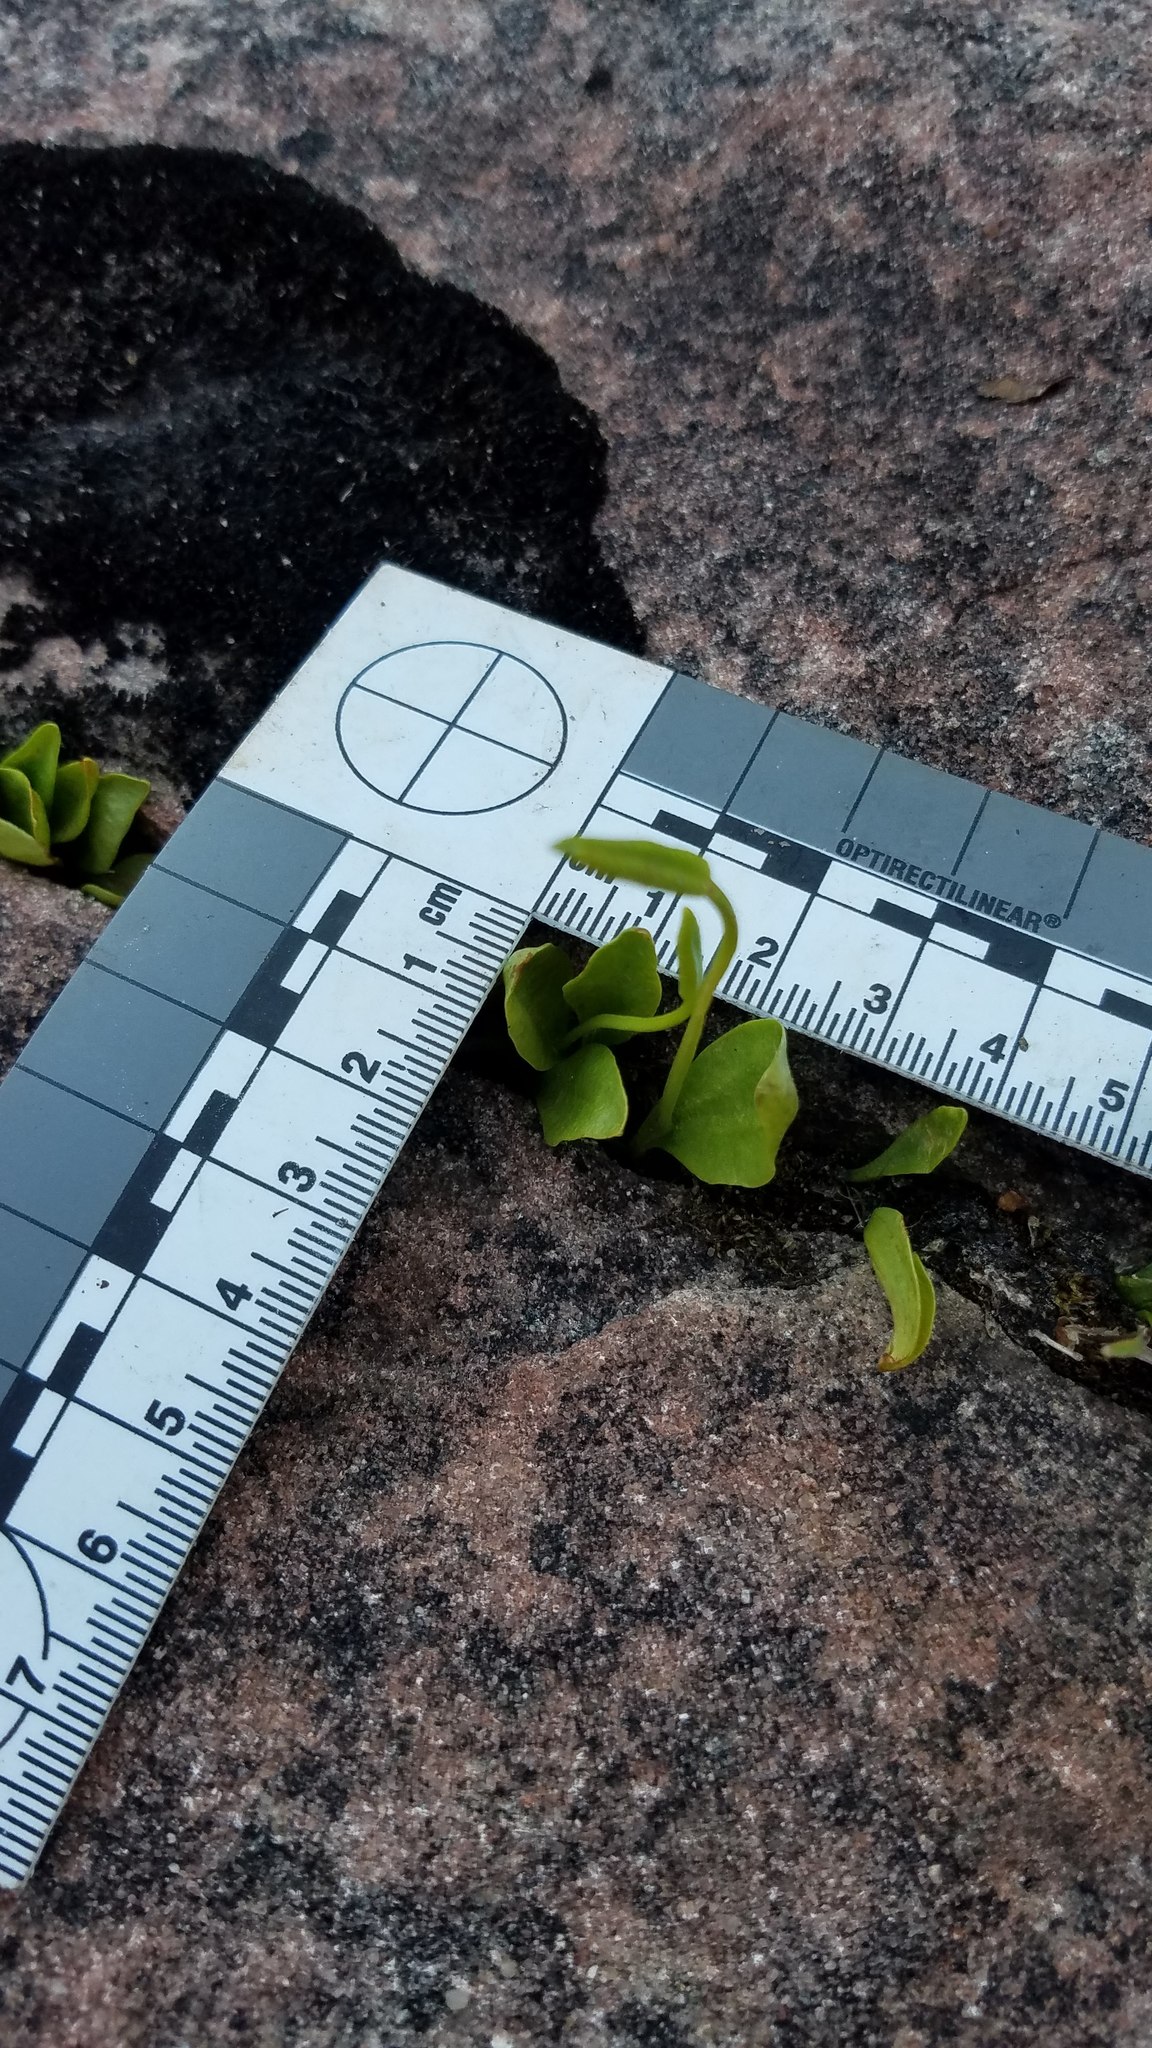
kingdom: Plantae
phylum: Tracheophyta
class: Polypodiopsida
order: Ophioglossales
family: Ophioglossaceae
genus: Ophioglossum
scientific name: Ophioglossum pusillum
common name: Northern adder's-tongue
